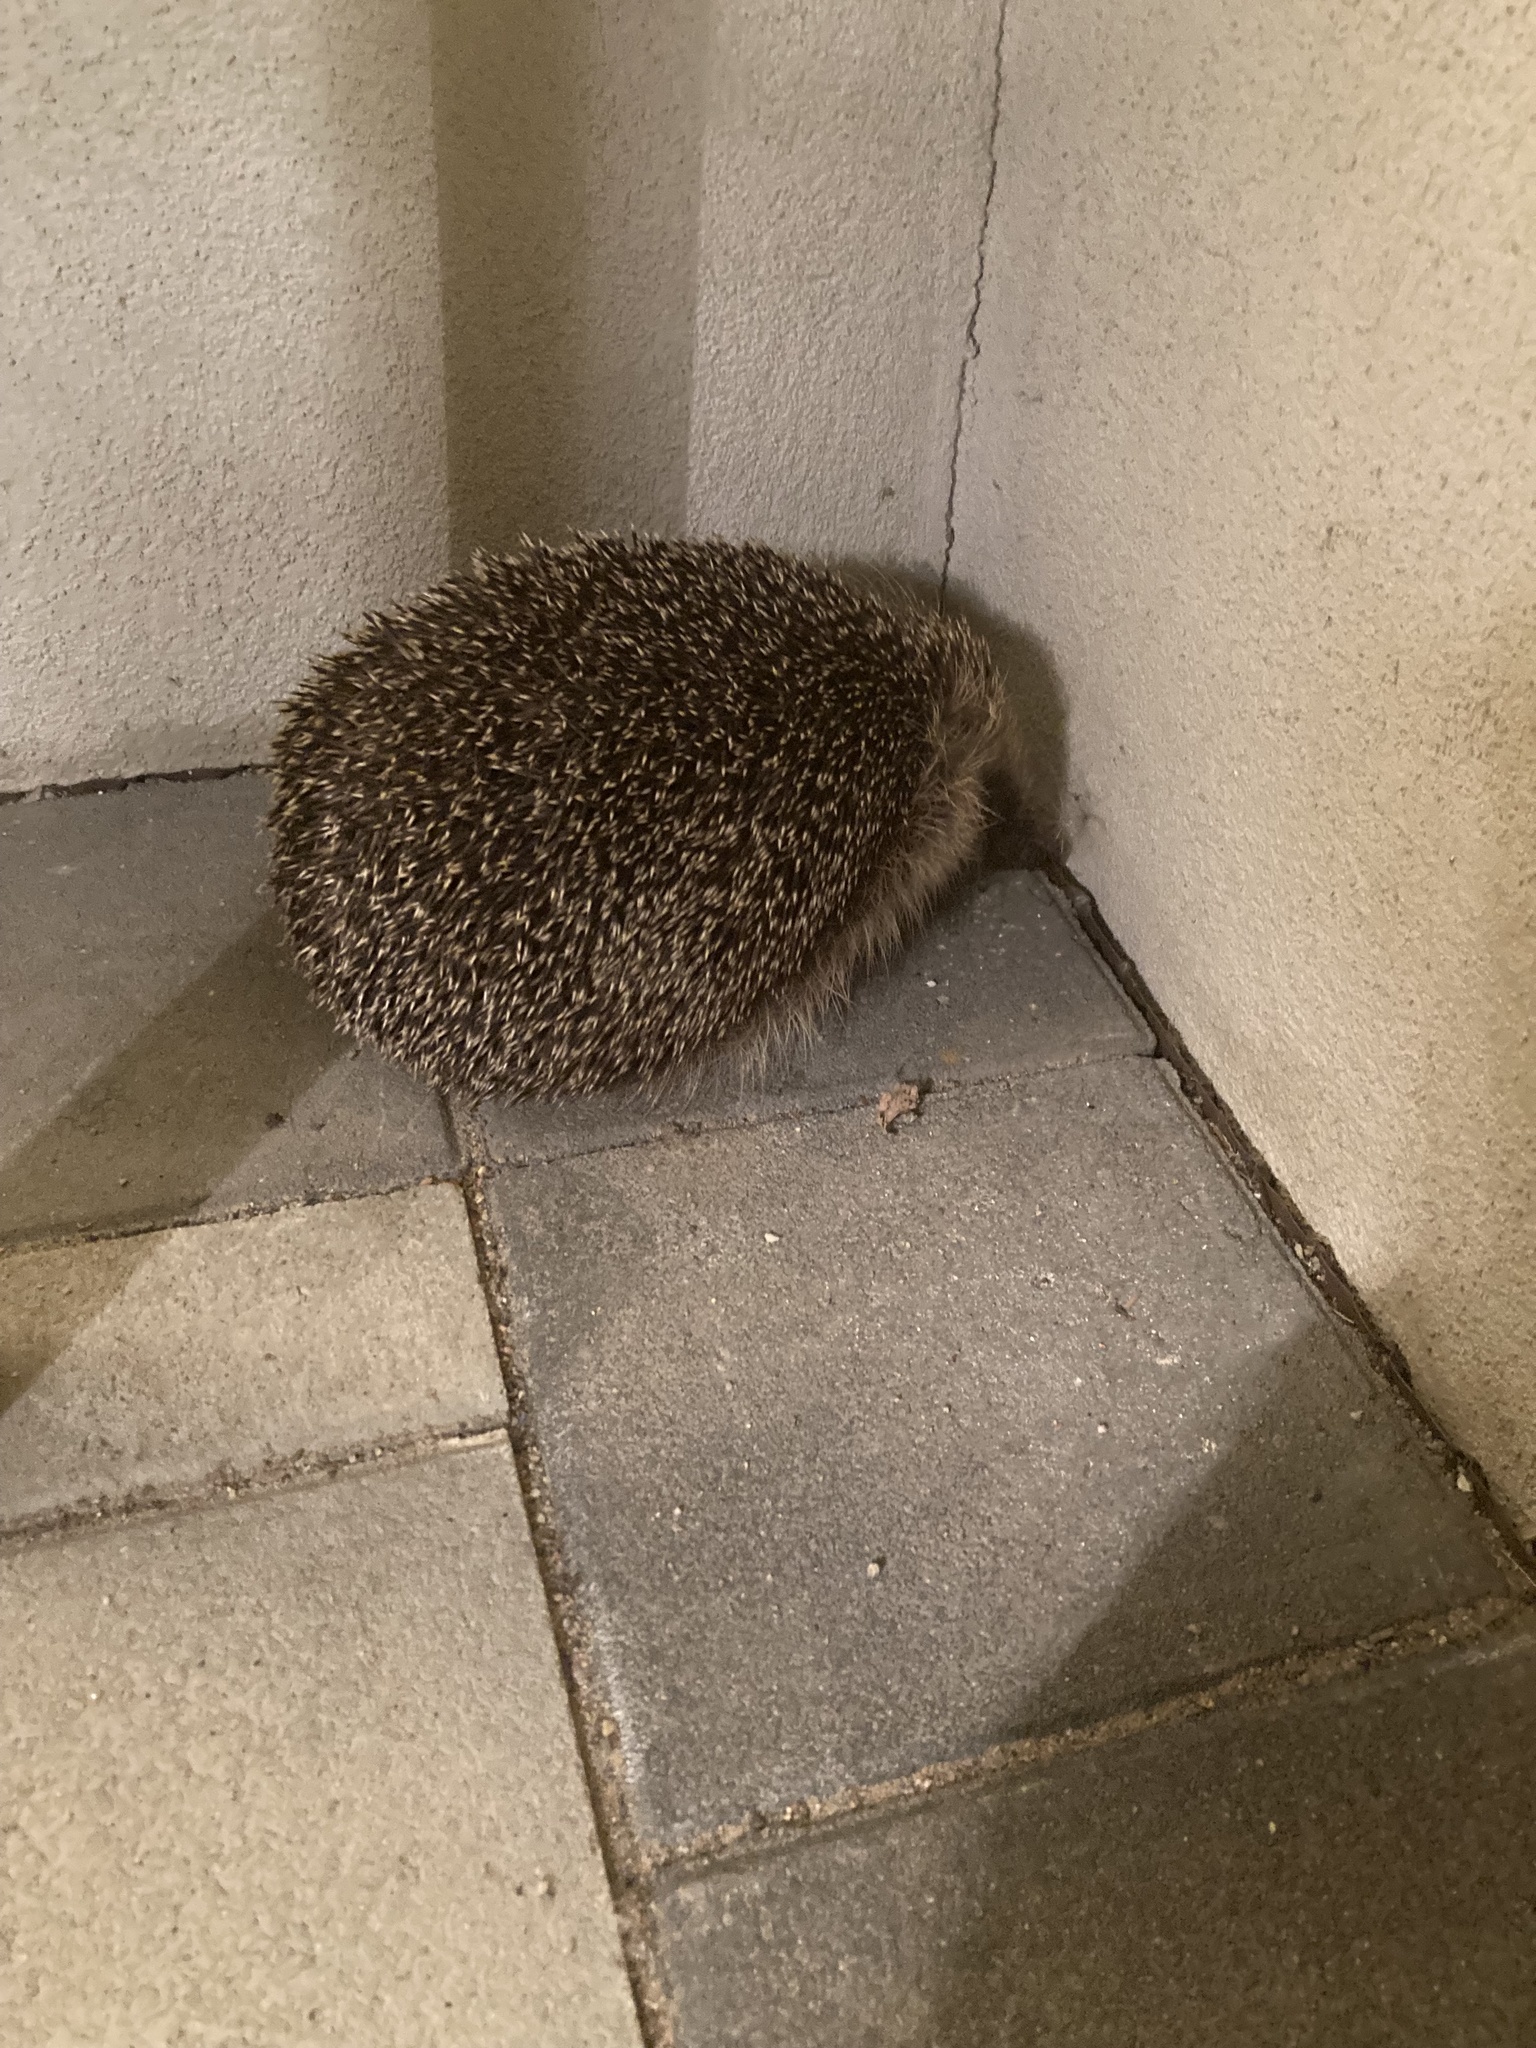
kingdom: Animalia
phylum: Chordata
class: Mammalia
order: Erinaceomorpha
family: Erinaceidae
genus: Erinaceus
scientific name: Erinaceus europaeus
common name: West european hedgehog
